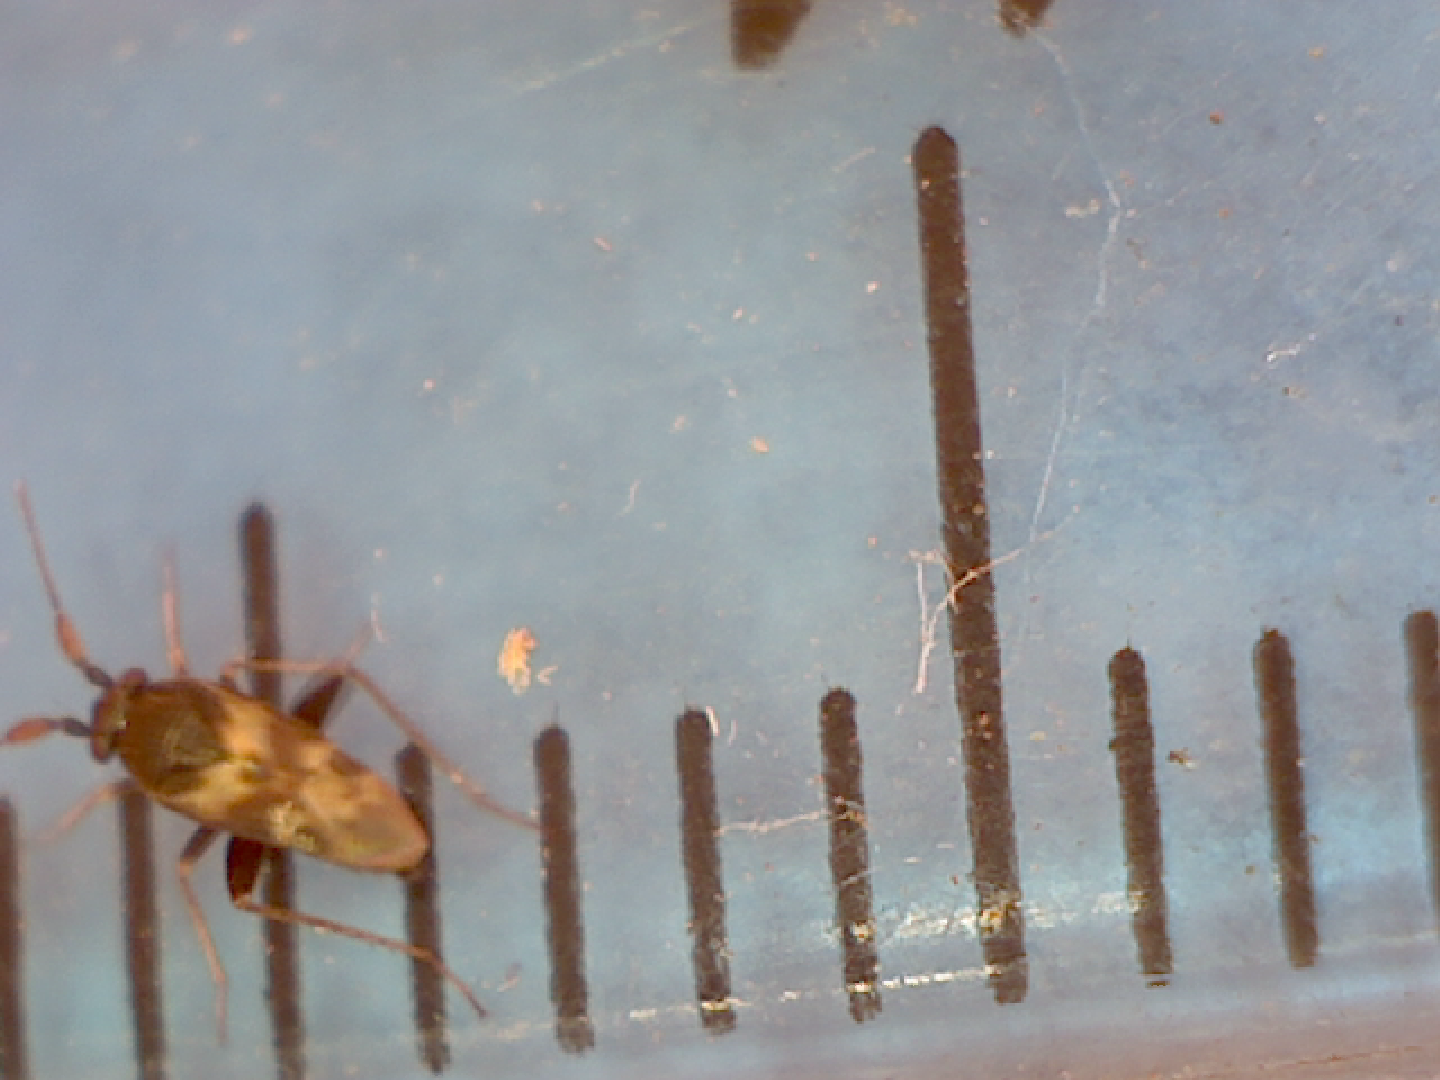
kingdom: Animalia
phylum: Arthropoda
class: Insecta
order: Hemiptera
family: Miridae
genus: Spanagonicus
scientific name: Spanagonicus albofasciatus
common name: Whitemarked fleahopper
